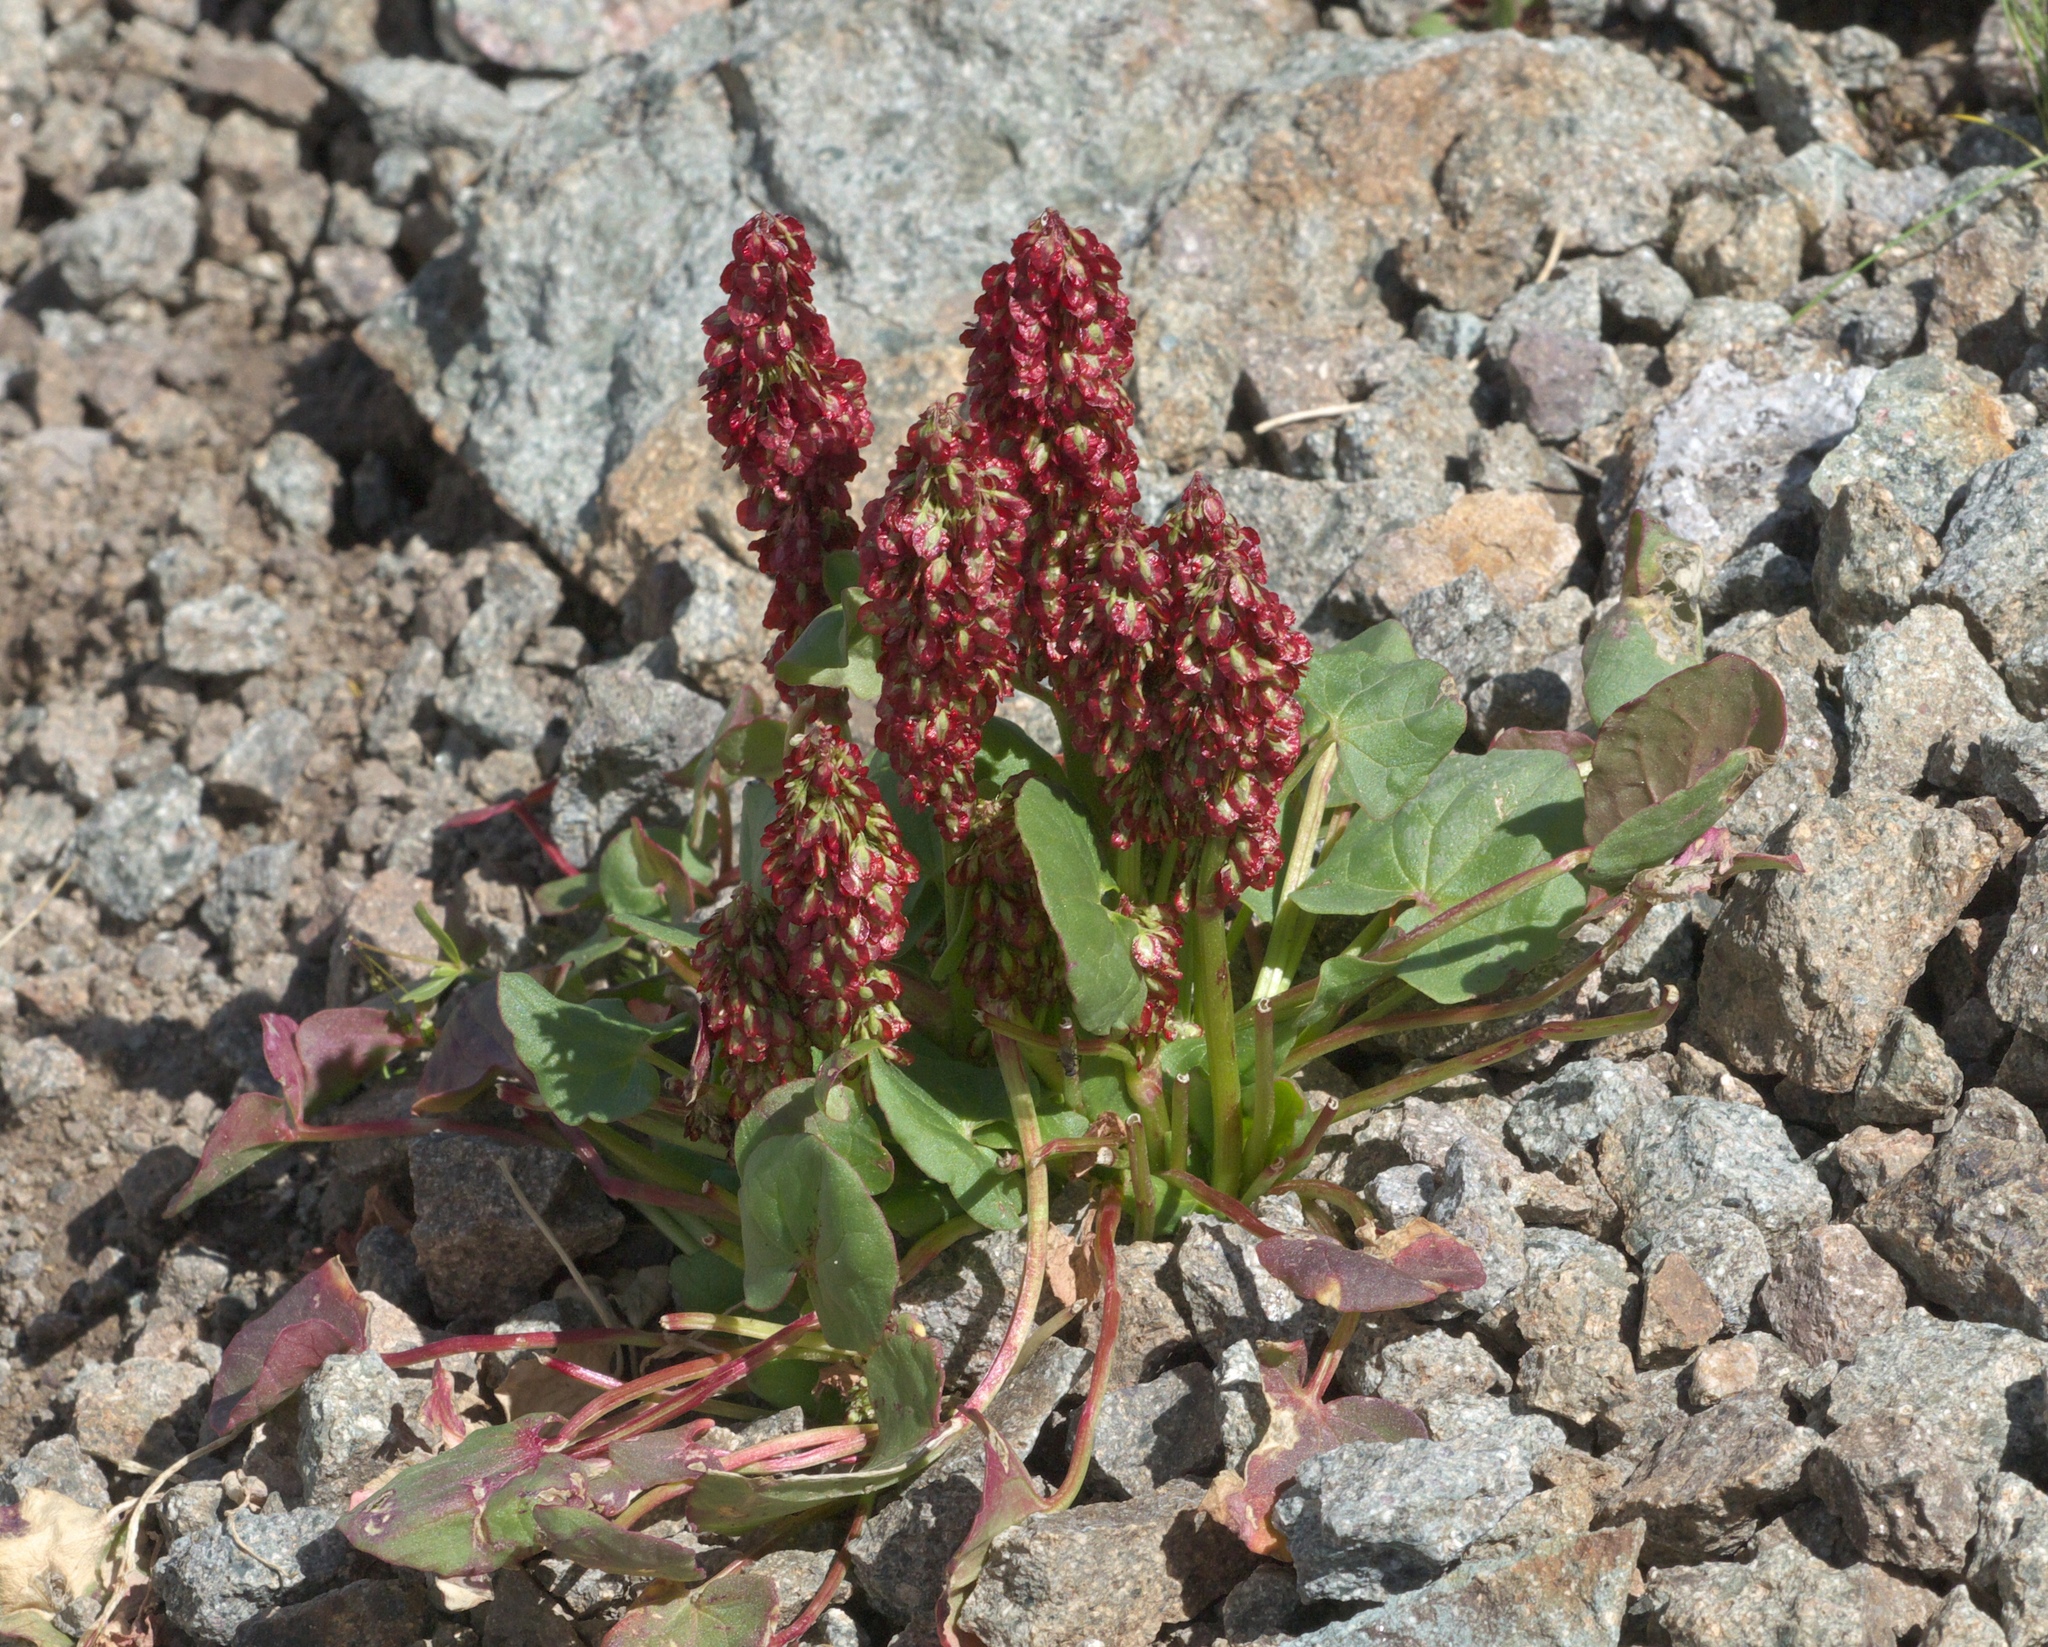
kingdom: Plantae
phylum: Tracheophyta
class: Magnoliopsida
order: Caryophyllales
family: Polygonaceae
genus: Oxyria
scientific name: Oxyria digyna
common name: Alpine mountain-sorrel
